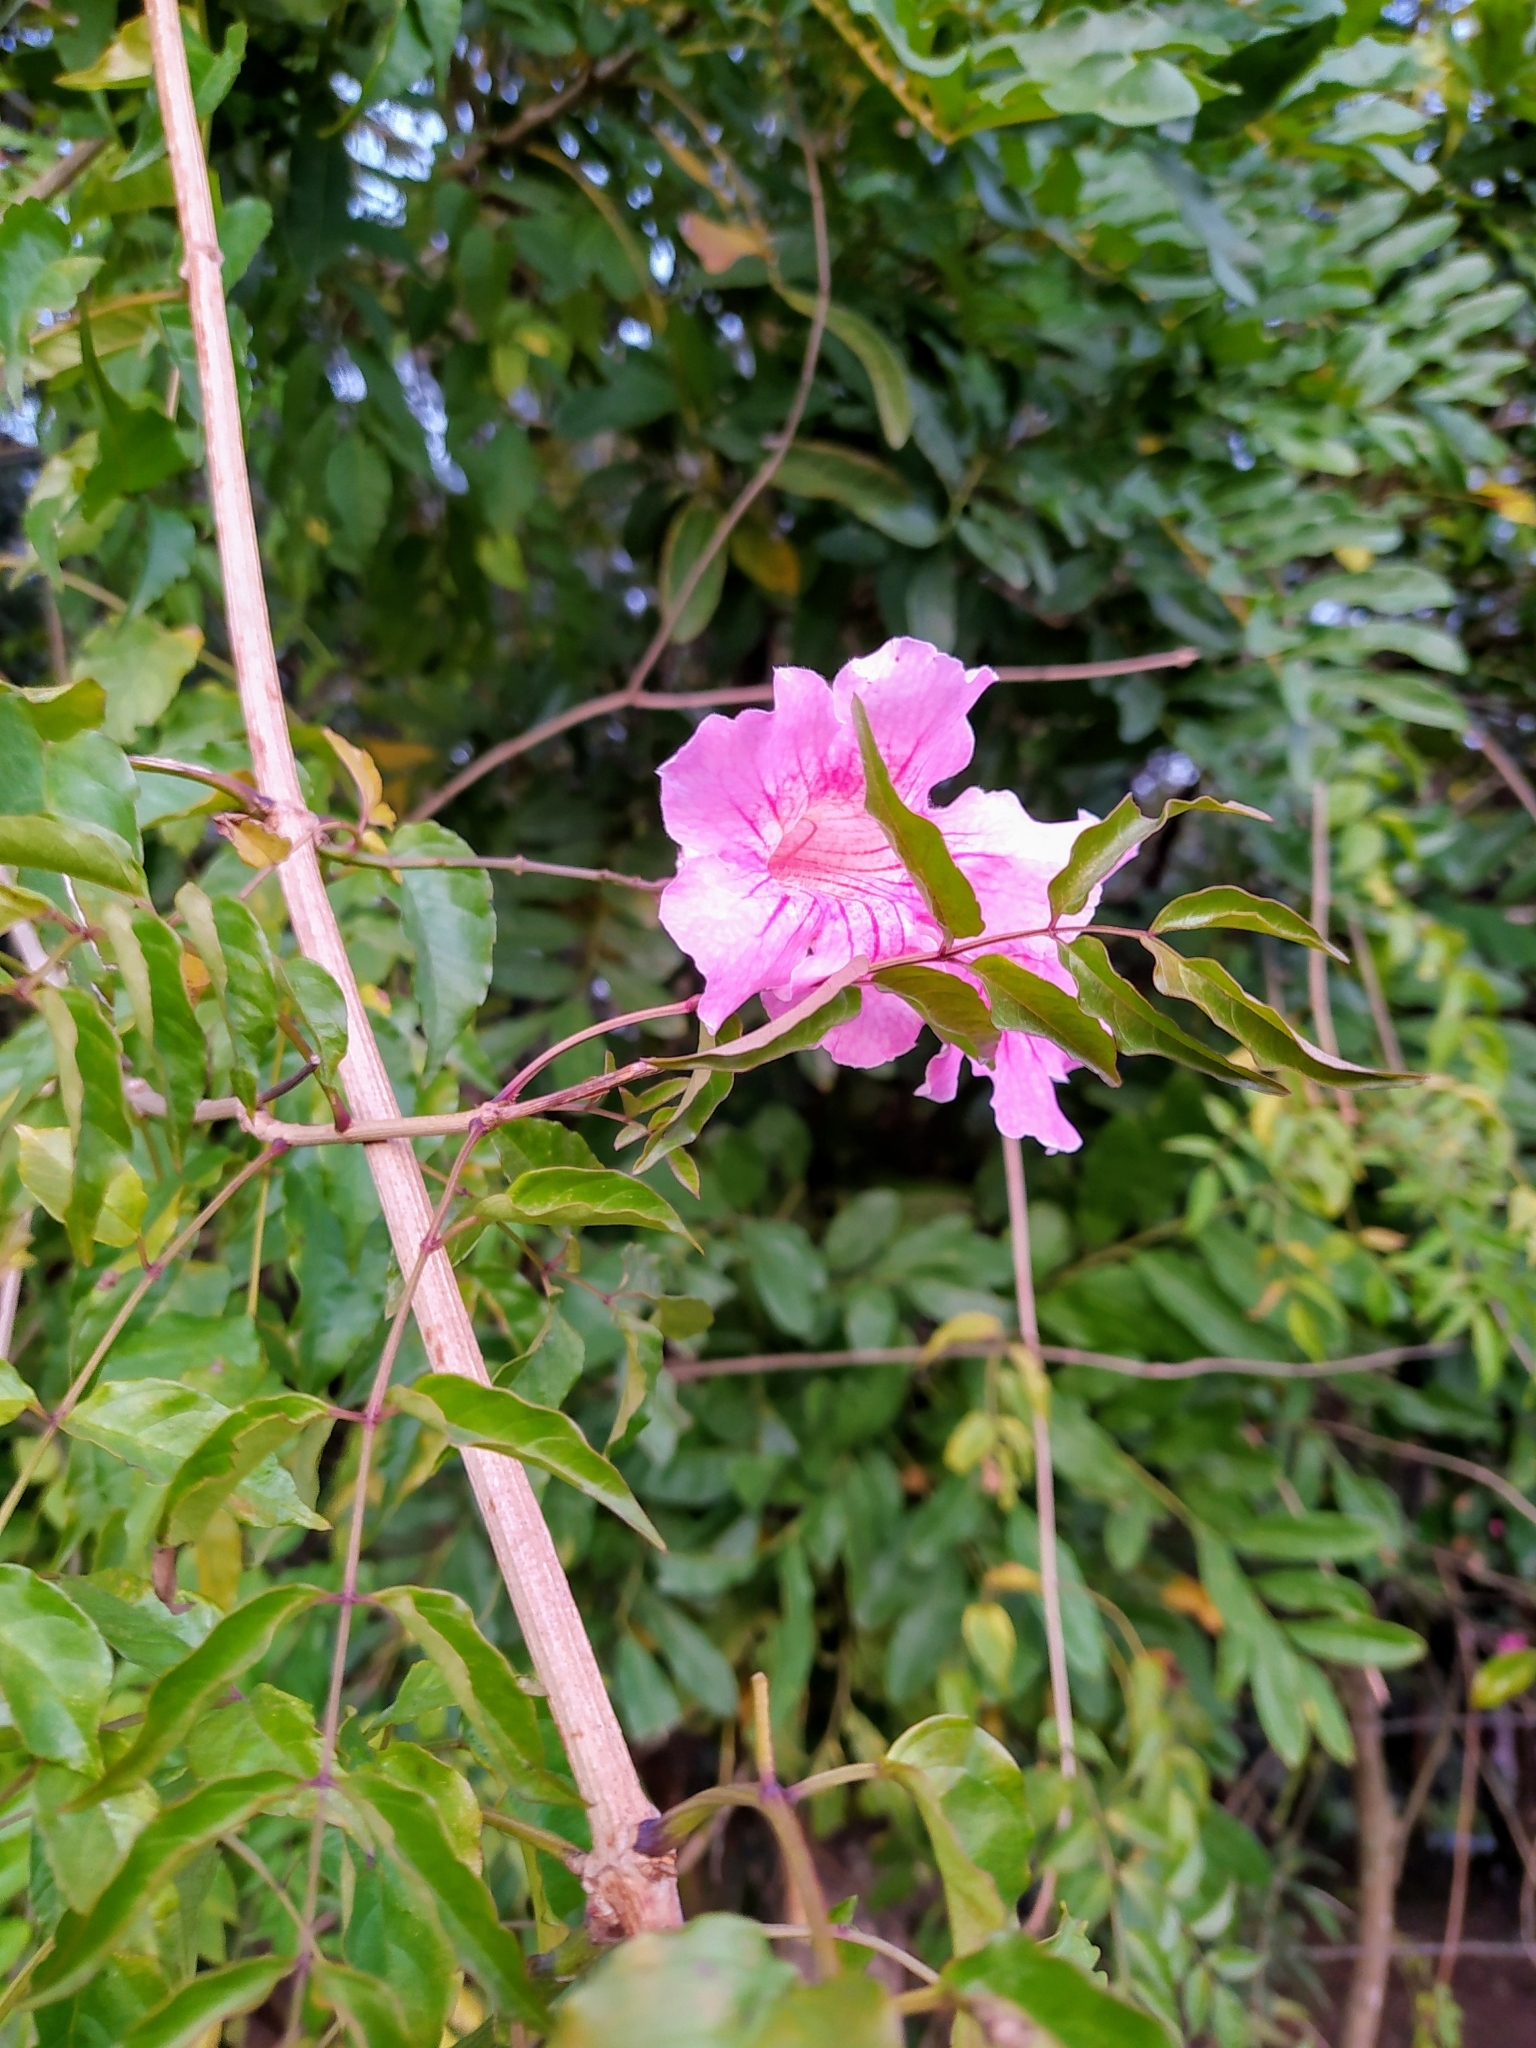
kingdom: Plantae
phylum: Tracheophyta
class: Magnoliopsida
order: Lamiales
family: Bignoniaceae
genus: Podranea
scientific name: Podranea ricasoliana
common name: Zimbabwe creeper
